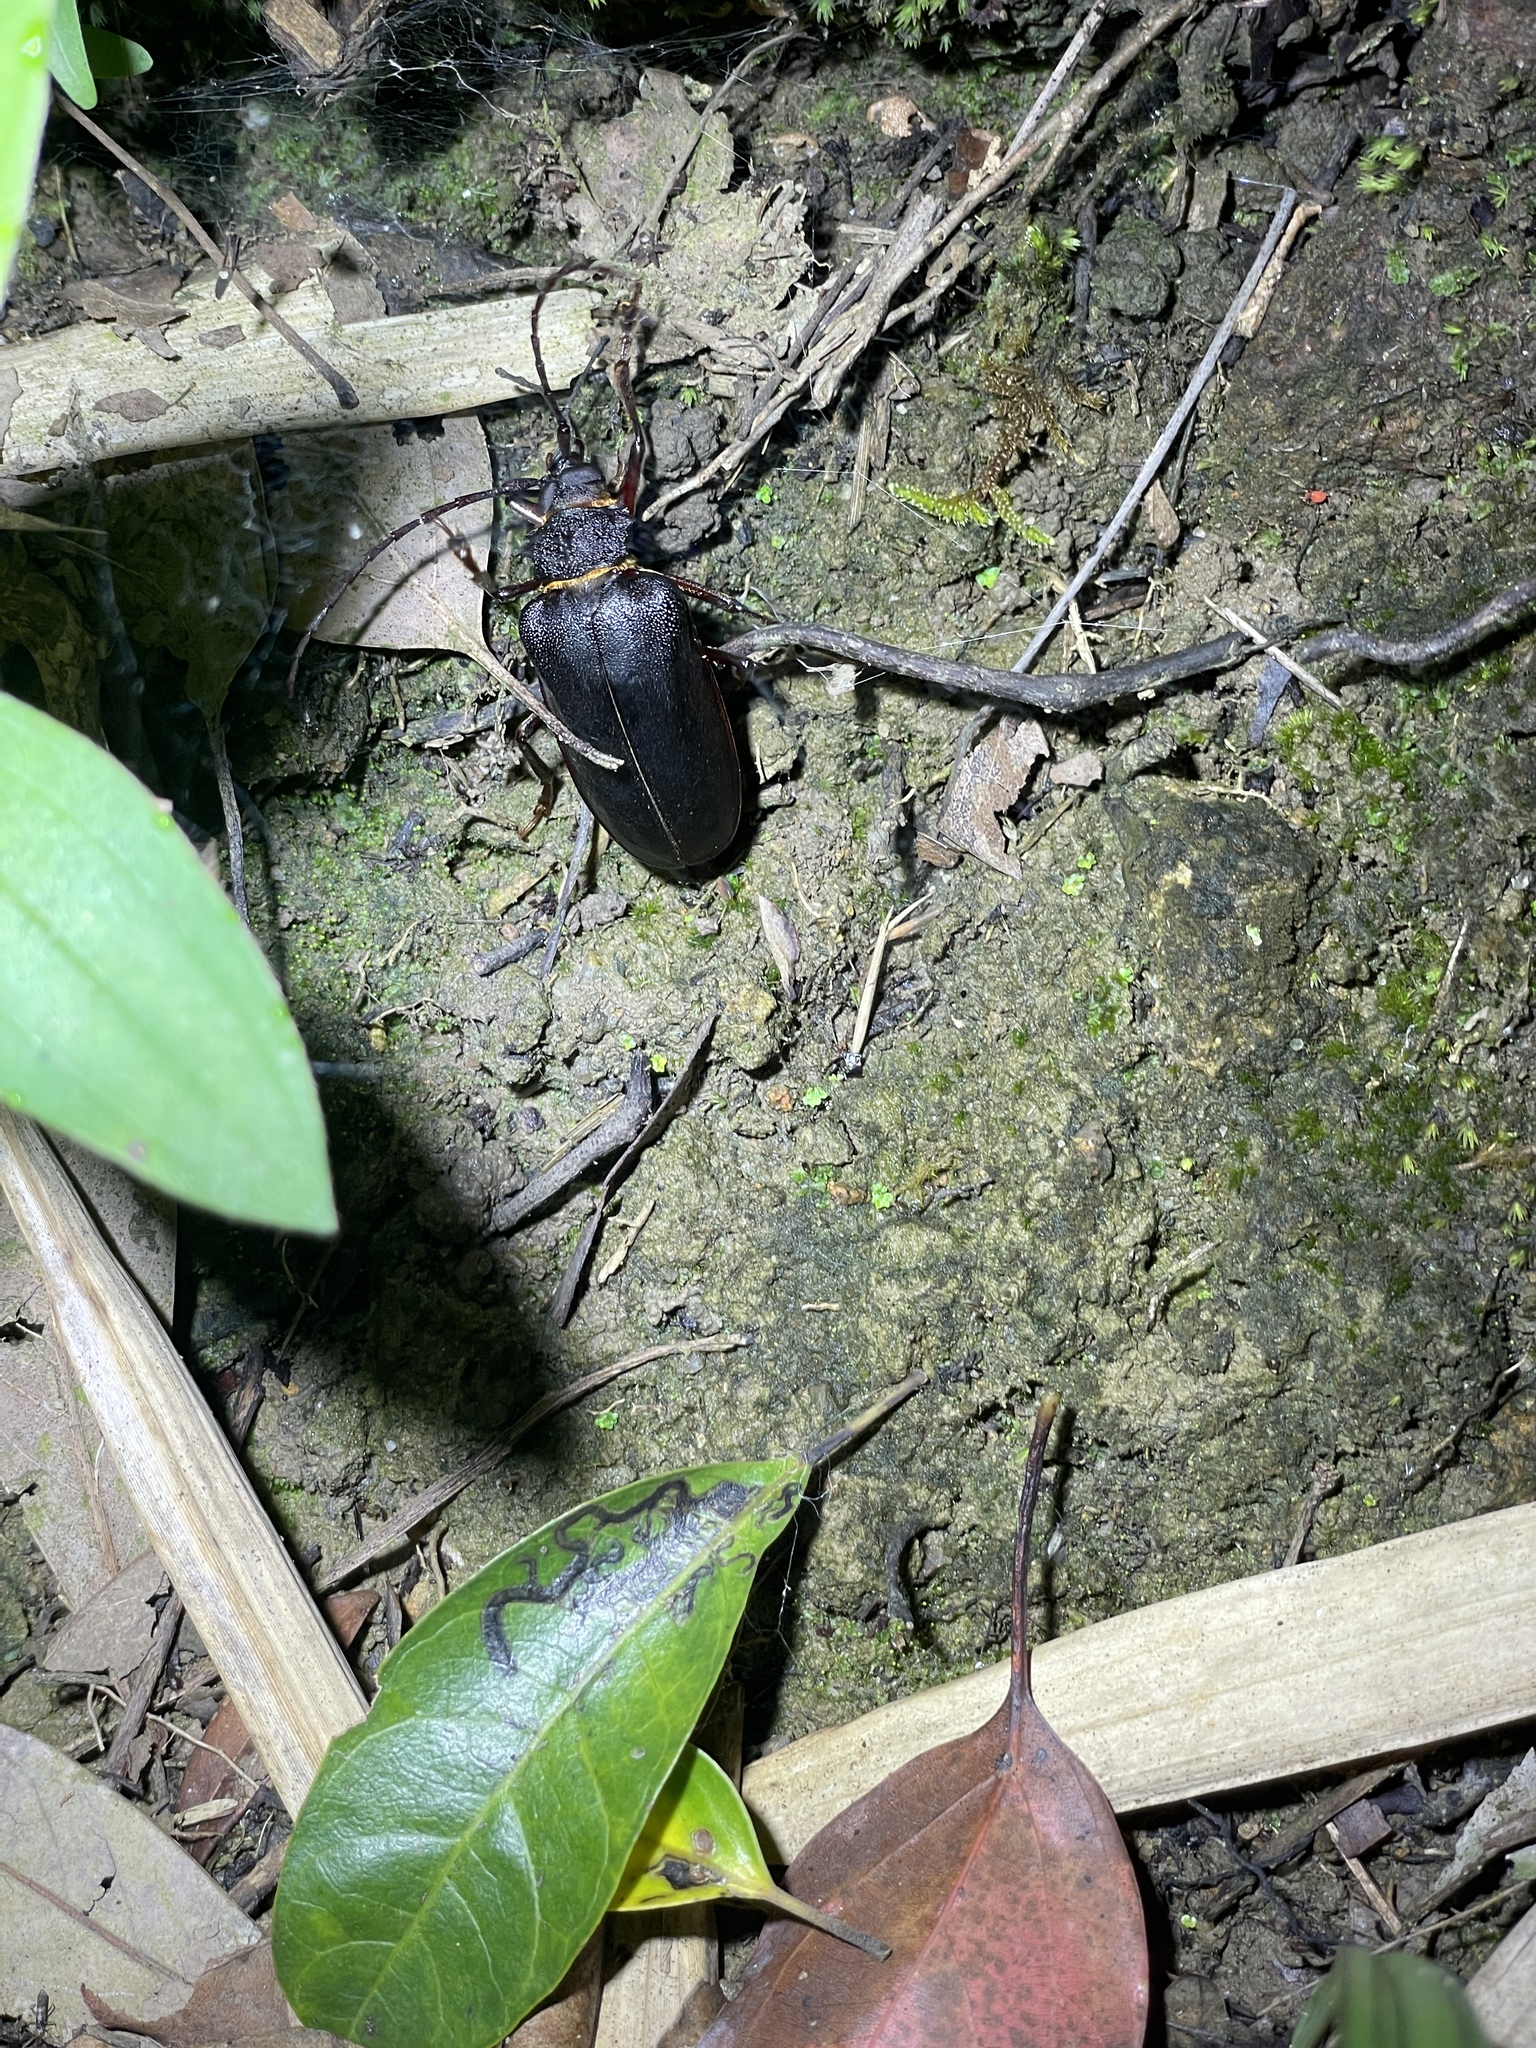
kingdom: Animalia
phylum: Arthropoda
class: Insecta
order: Coleoptera
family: Cerambycidae
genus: Priotyrannus
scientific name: Priotyrannus closteroides
